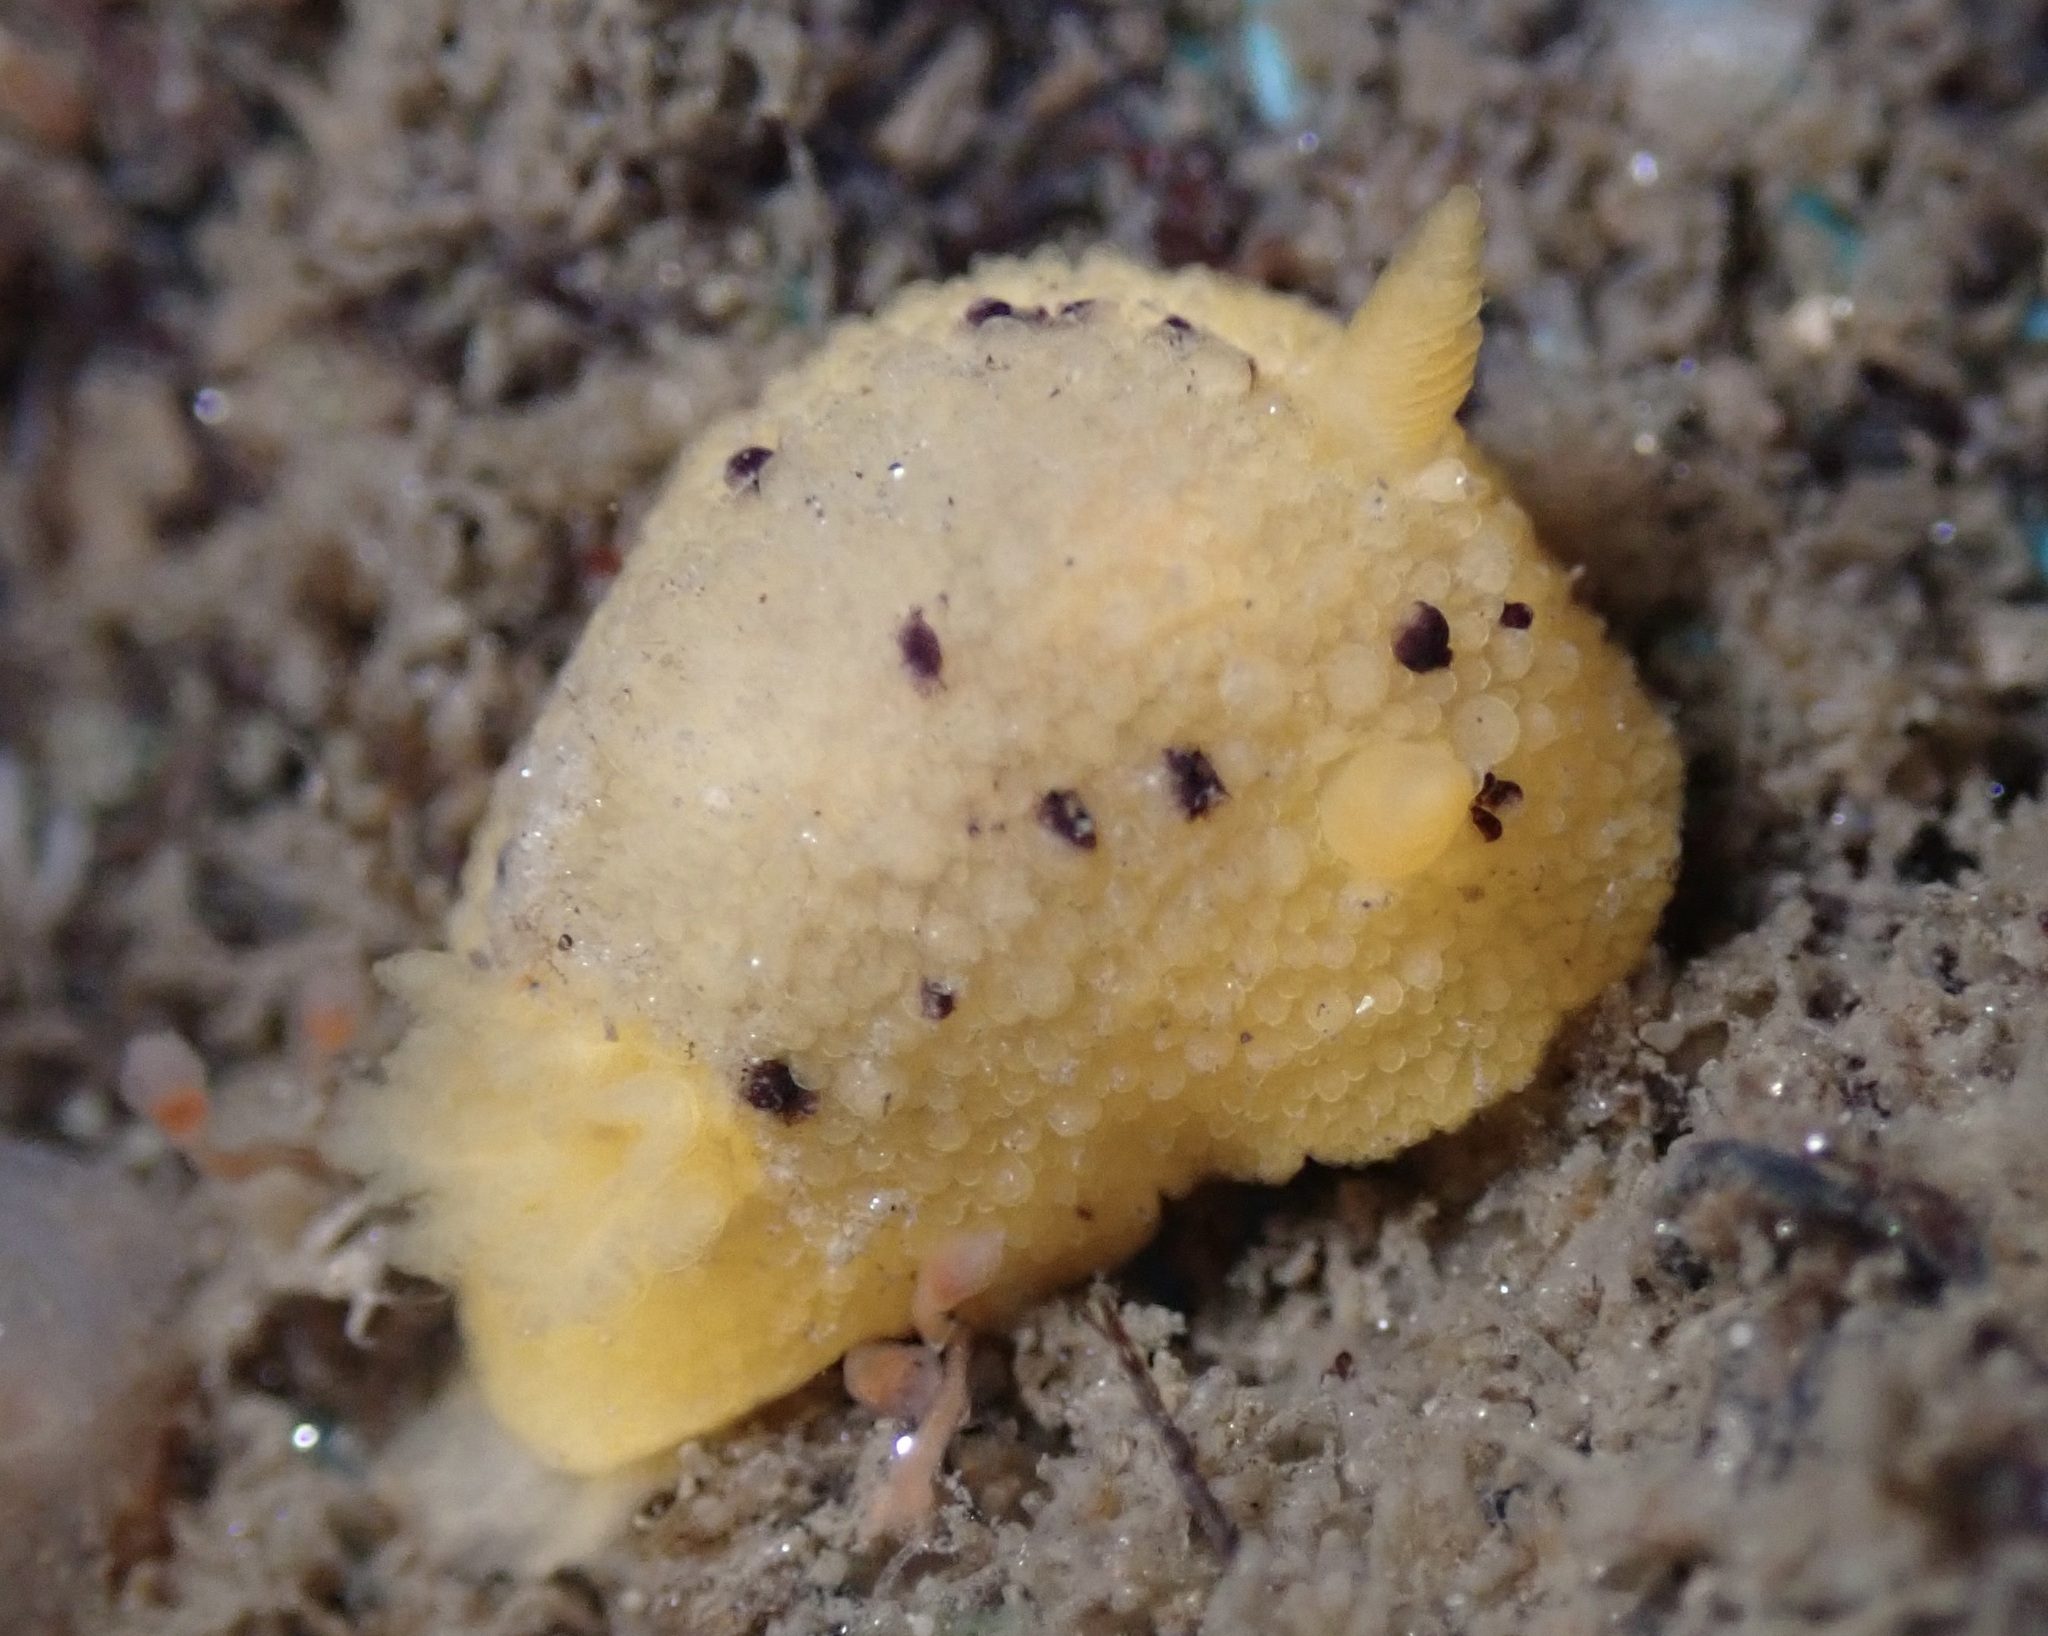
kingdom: Animalia
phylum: Mollusca
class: Gastropoda
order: Nudibranchia
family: Dorididae
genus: Doris
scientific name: Doris montereyensis
